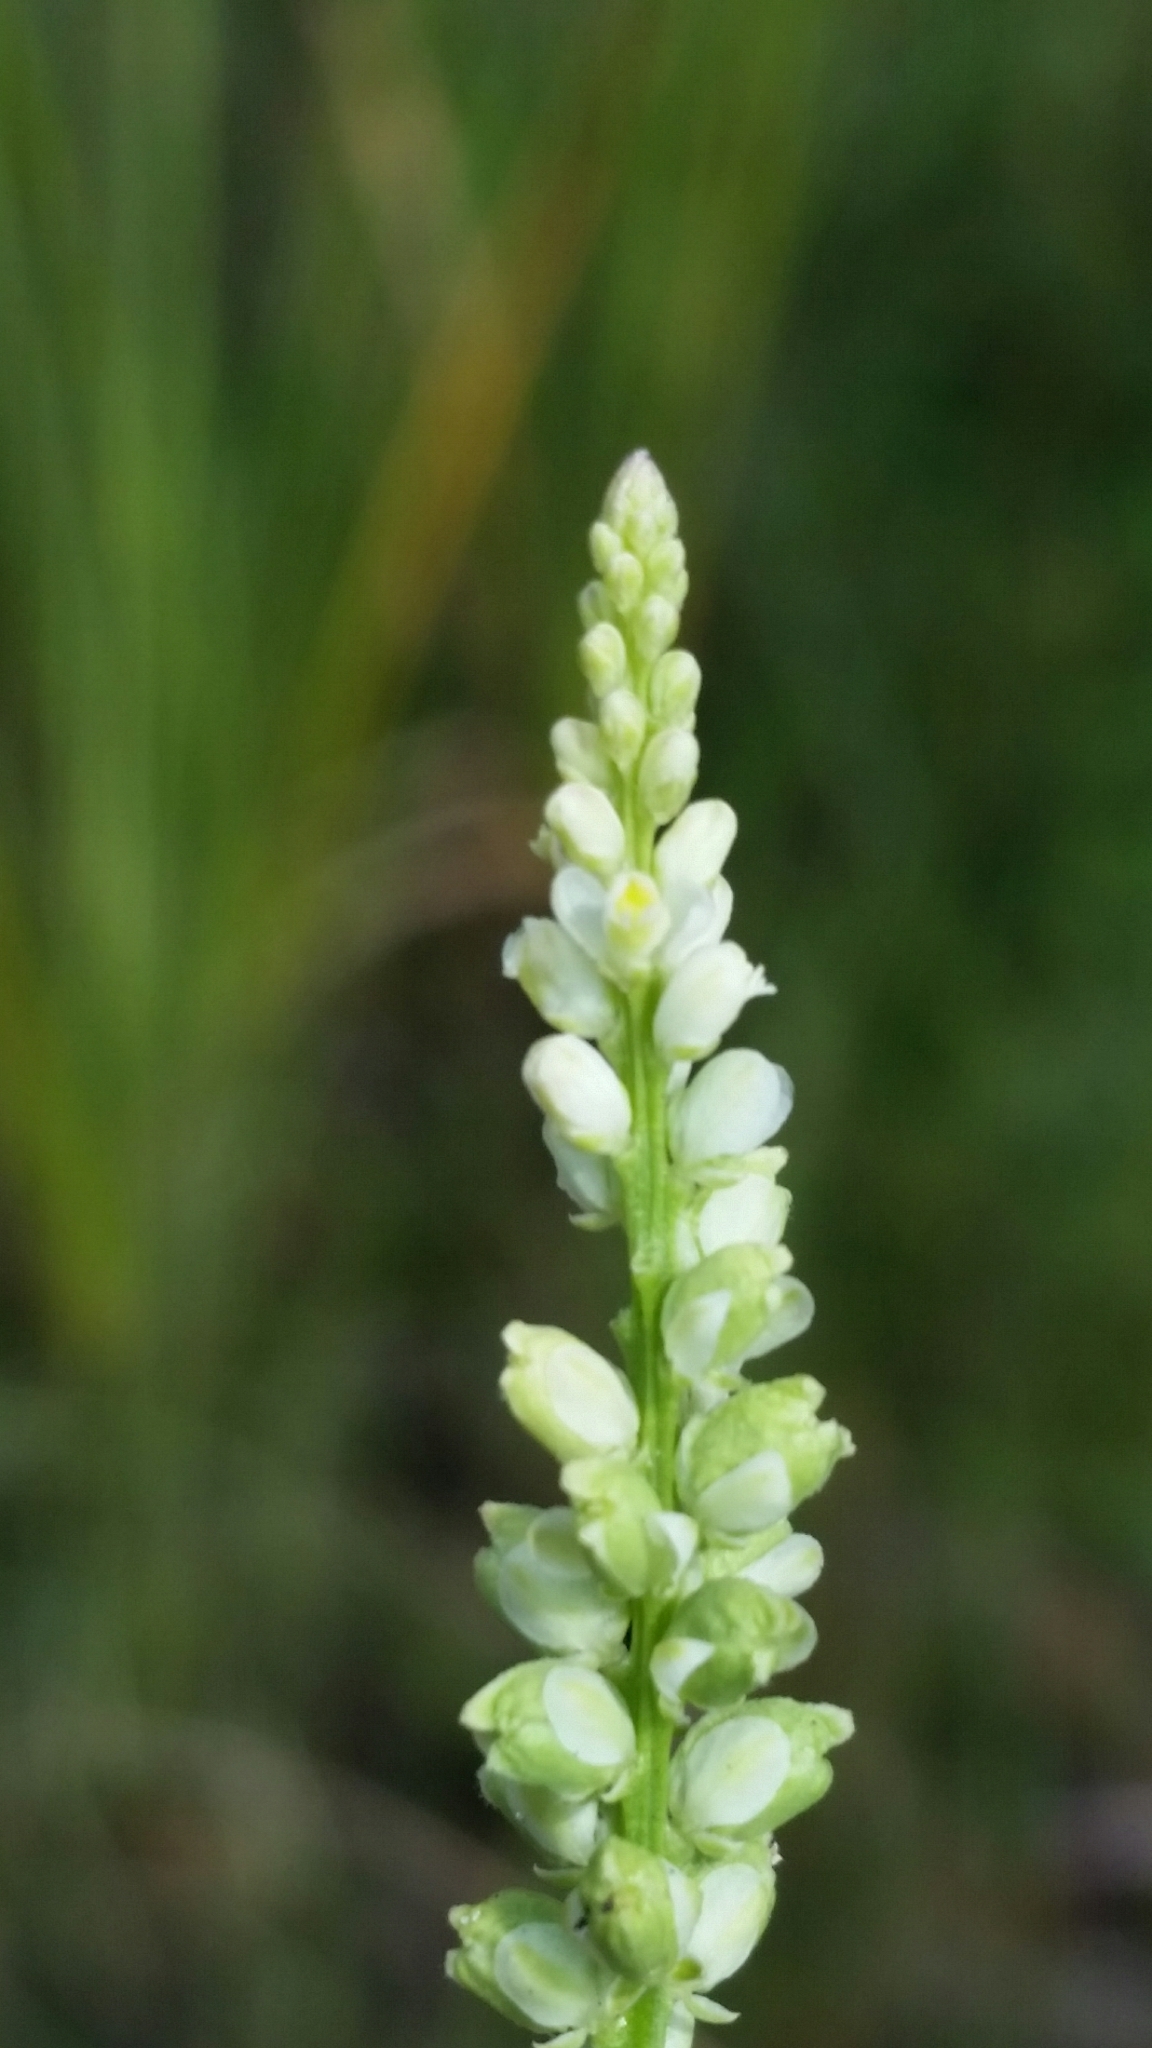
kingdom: Plantae
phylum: Tracheophyta
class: Magnoliopsida
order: Fabales
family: Polygalaceae
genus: Polygala
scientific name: Polygala boykinii
